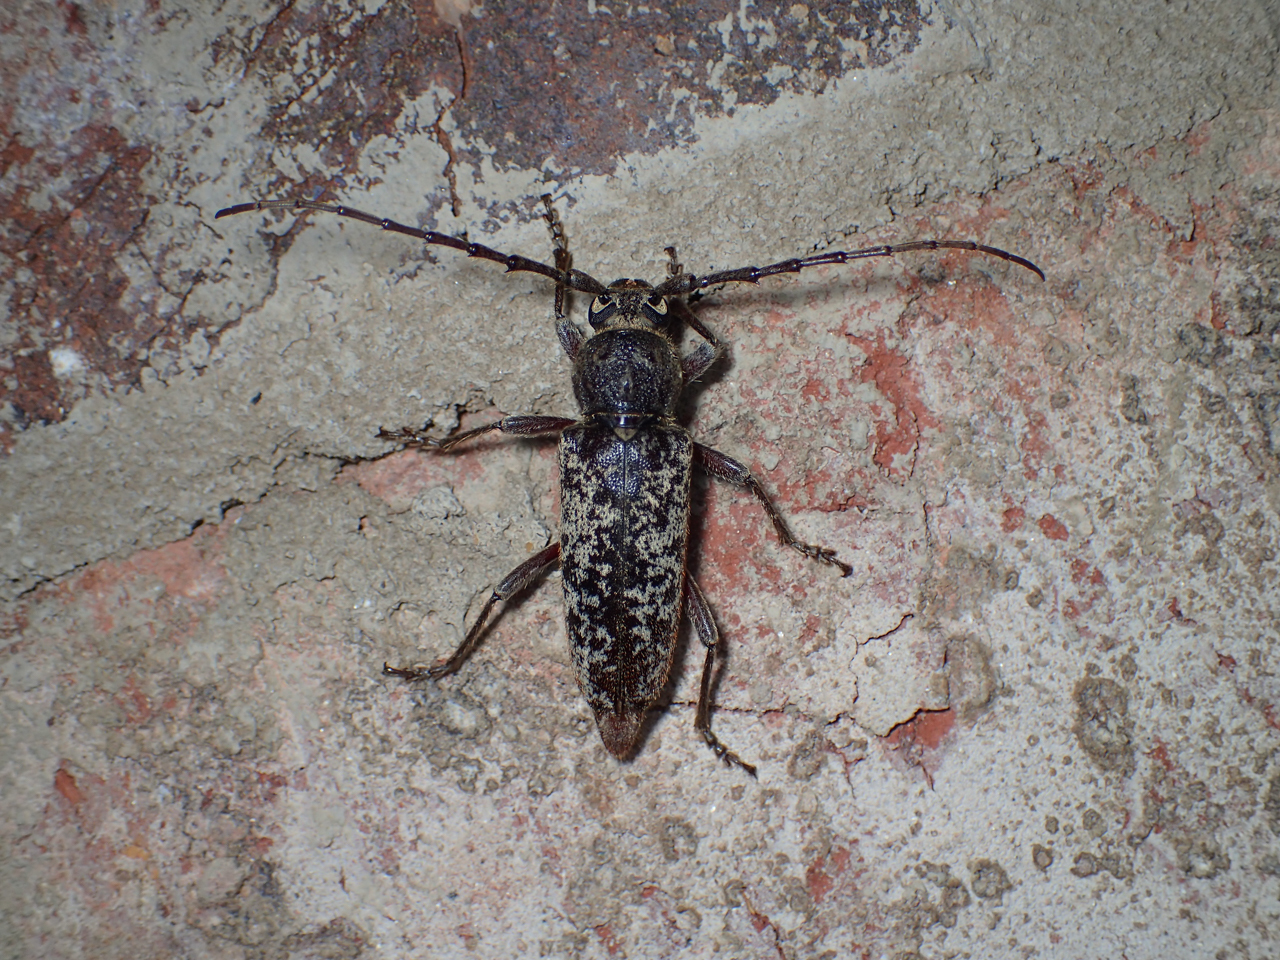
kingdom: Animalia
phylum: Arthropoda
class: Insecta
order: Coleoptera
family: Cerambycidae
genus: Enaphalodes
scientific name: Enaphalodes atomarius
